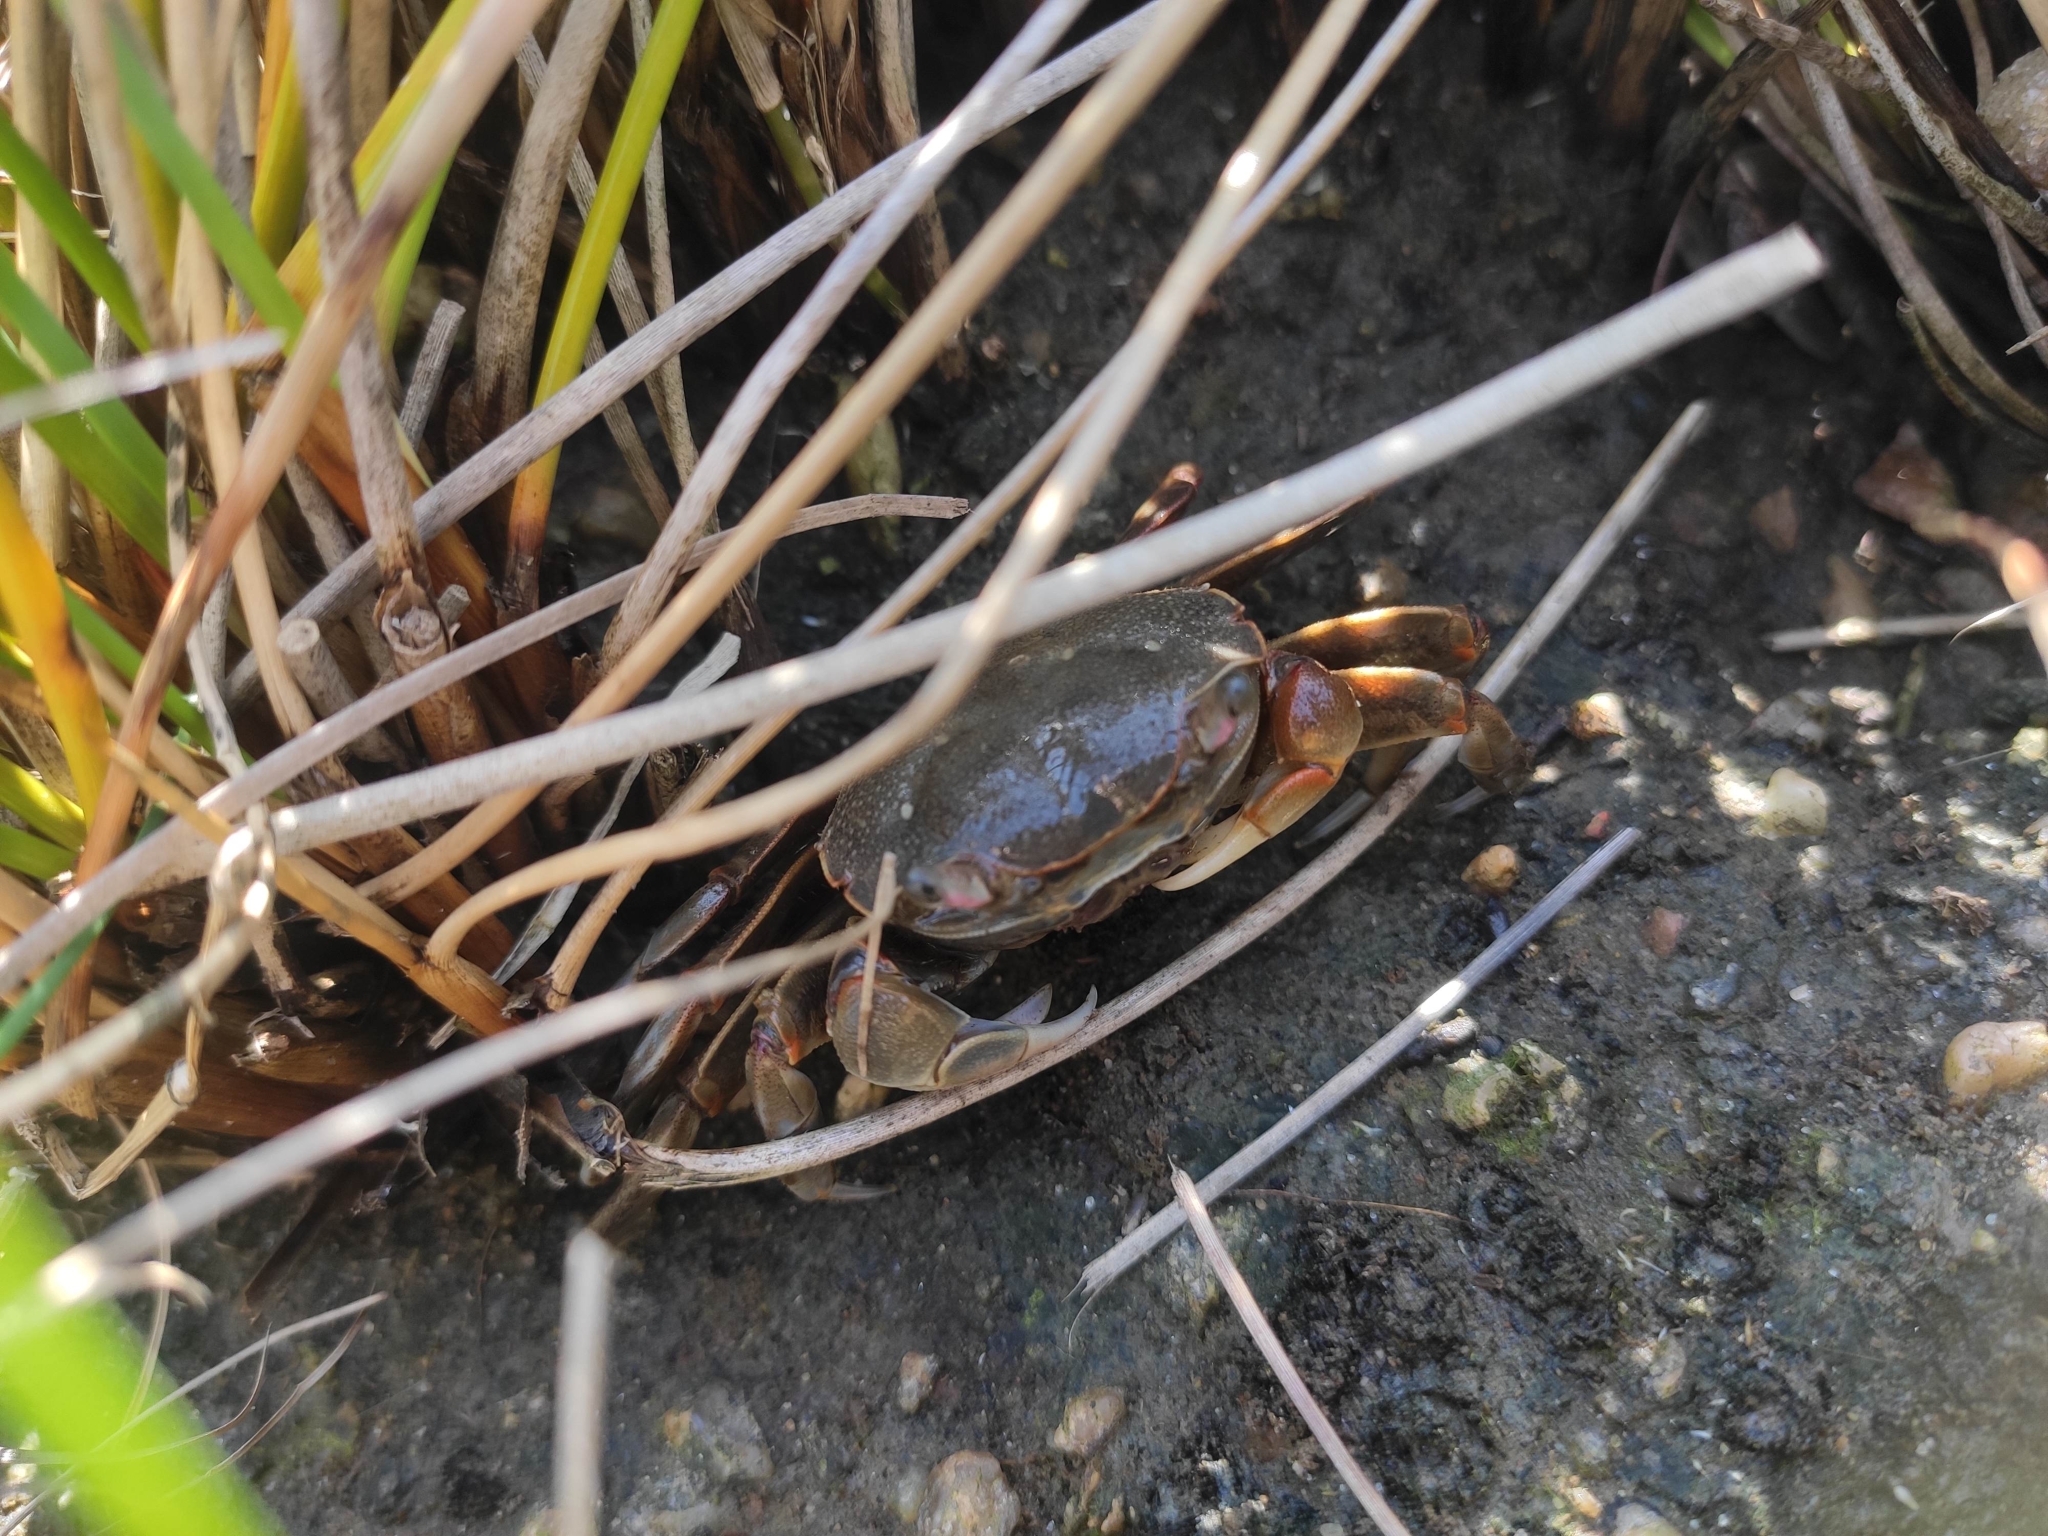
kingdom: Animalia
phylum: Arthropoda
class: Malacostraca
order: Decapoda
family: Varunidae
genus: Neohelice
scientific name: Neohelice granulata
